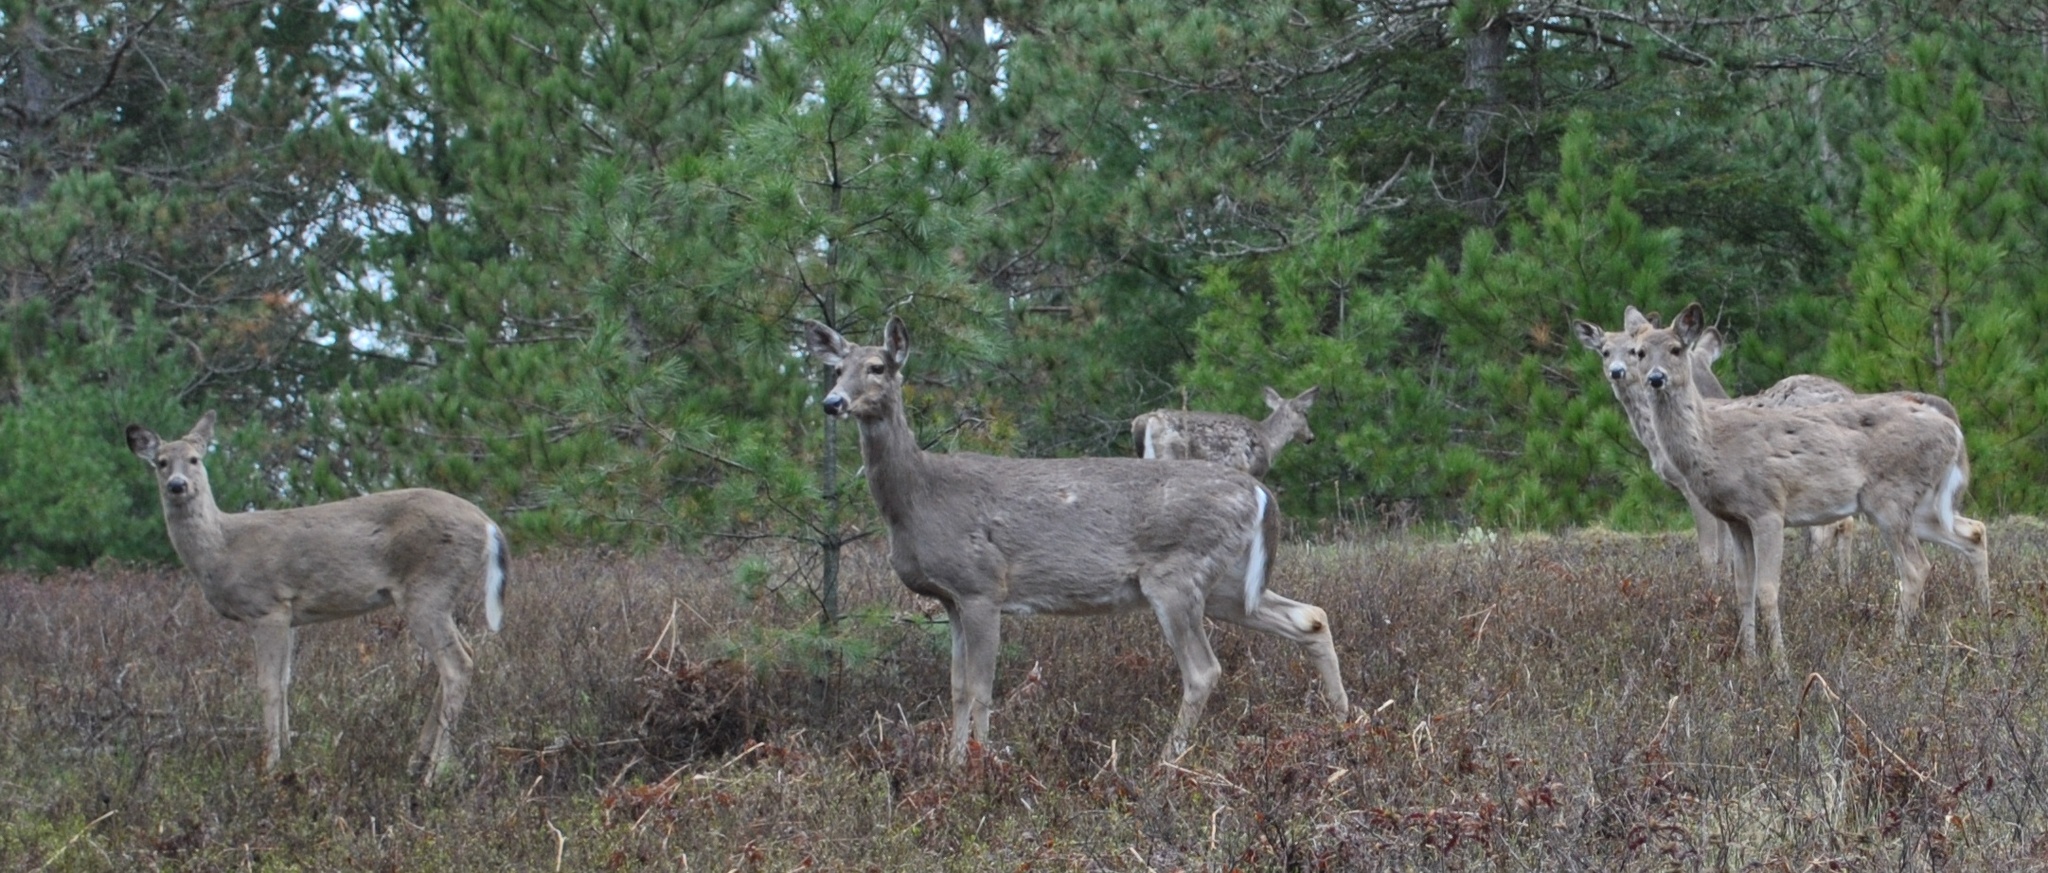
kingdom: Animalia
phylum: Chordata
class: Mammalia
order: Artiodactyla
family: Cervidae
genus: Odocoileus
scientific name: Odocoileus virginianus
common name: White-tailed deer
